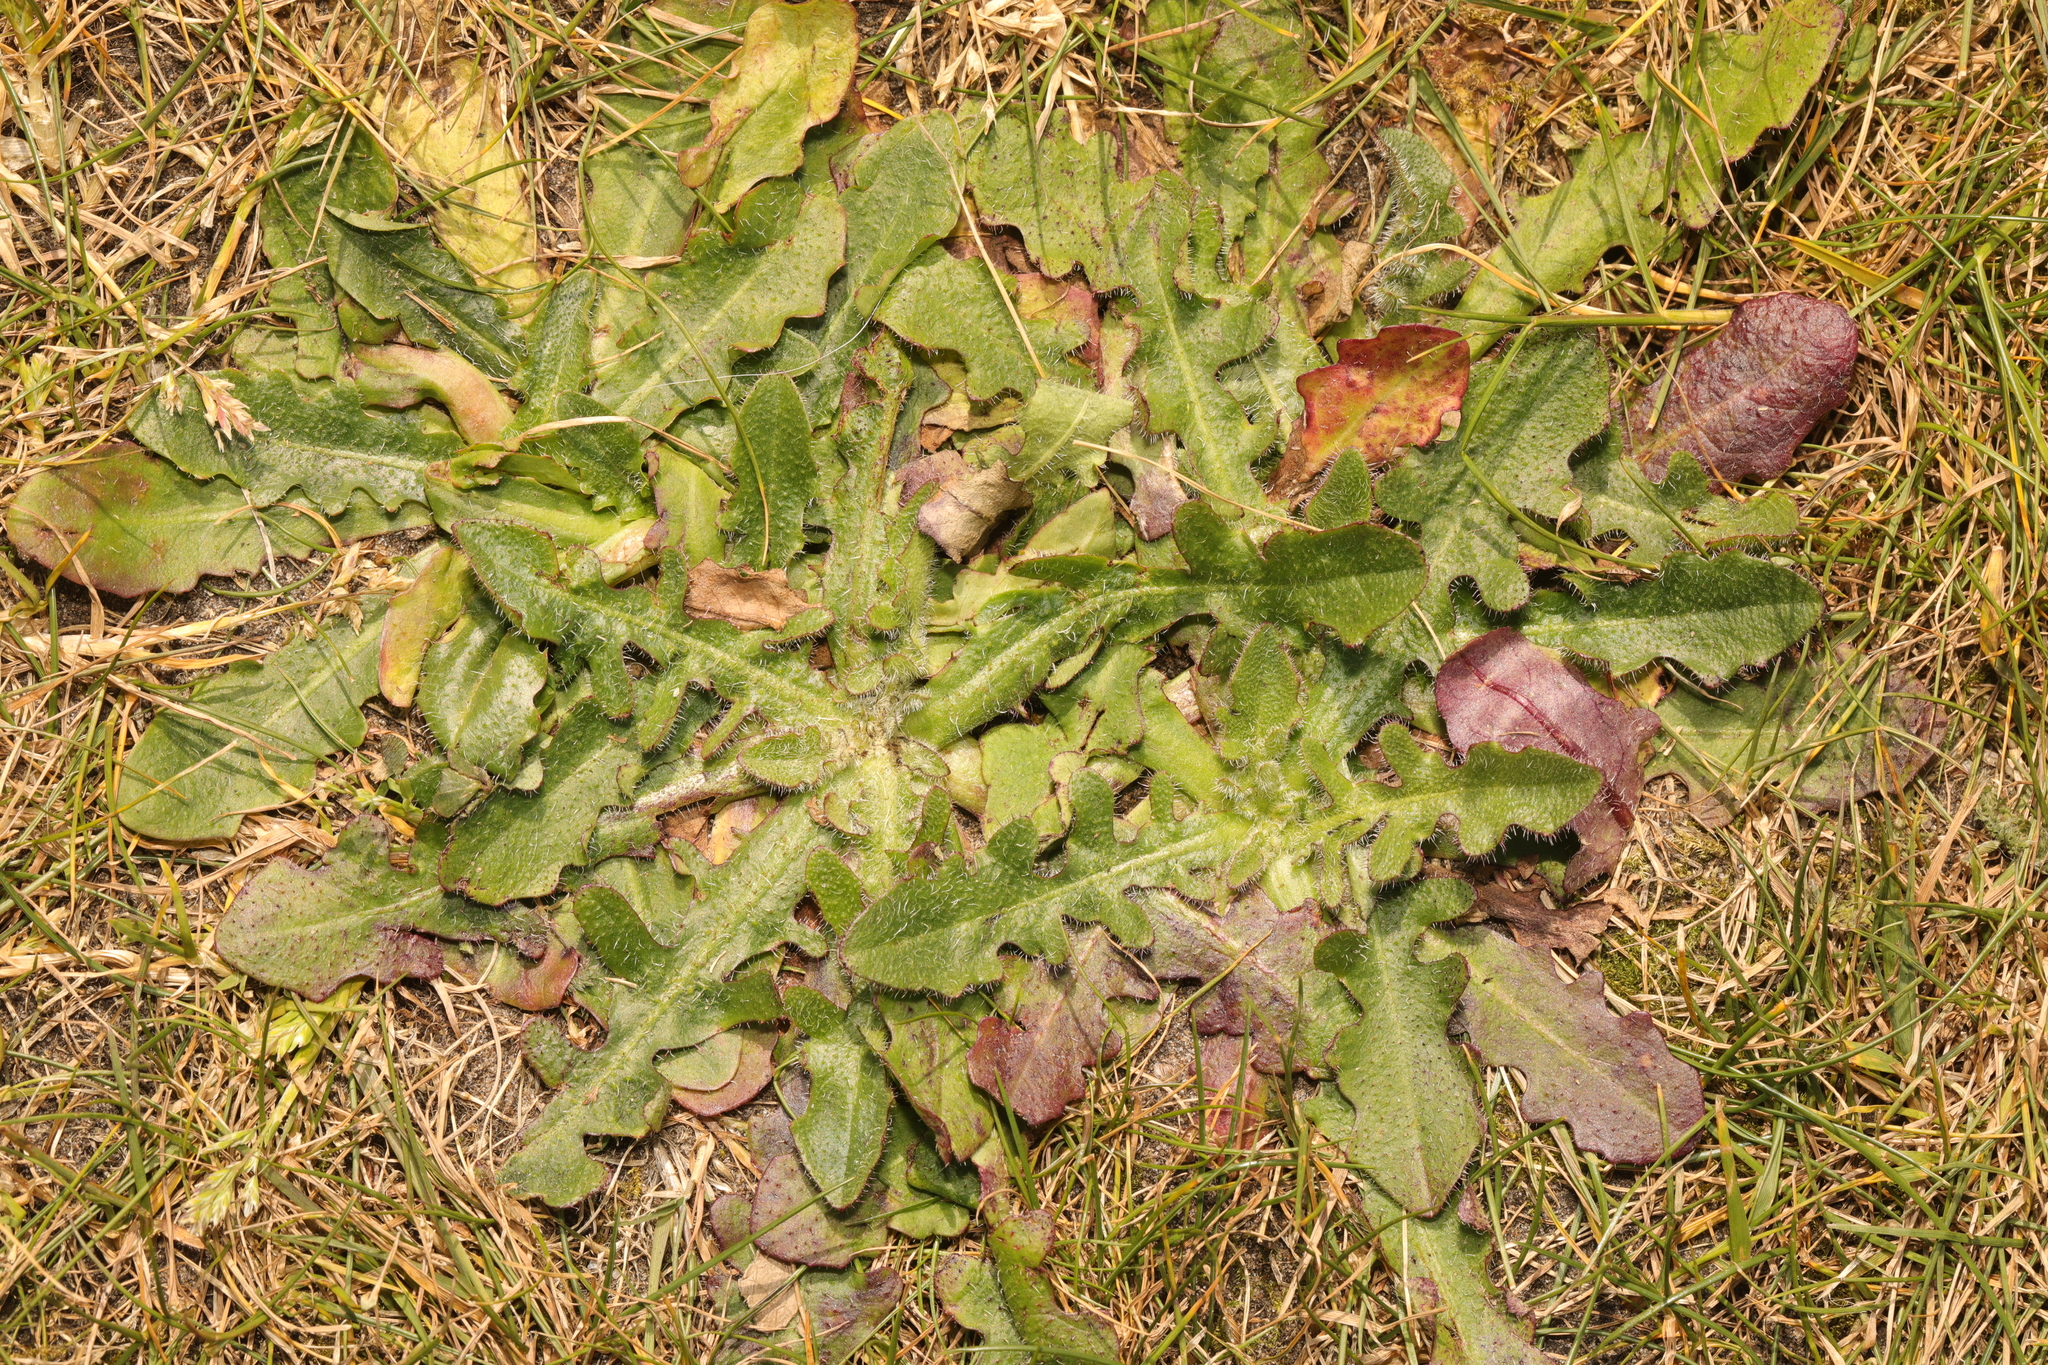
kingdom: Plantae
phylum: Tracheophyta
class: Magnoliopsida
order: Asterales
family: Asteraceae
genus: Hypochaeris
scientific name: Hypochaeris radicata
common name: Flatweed
